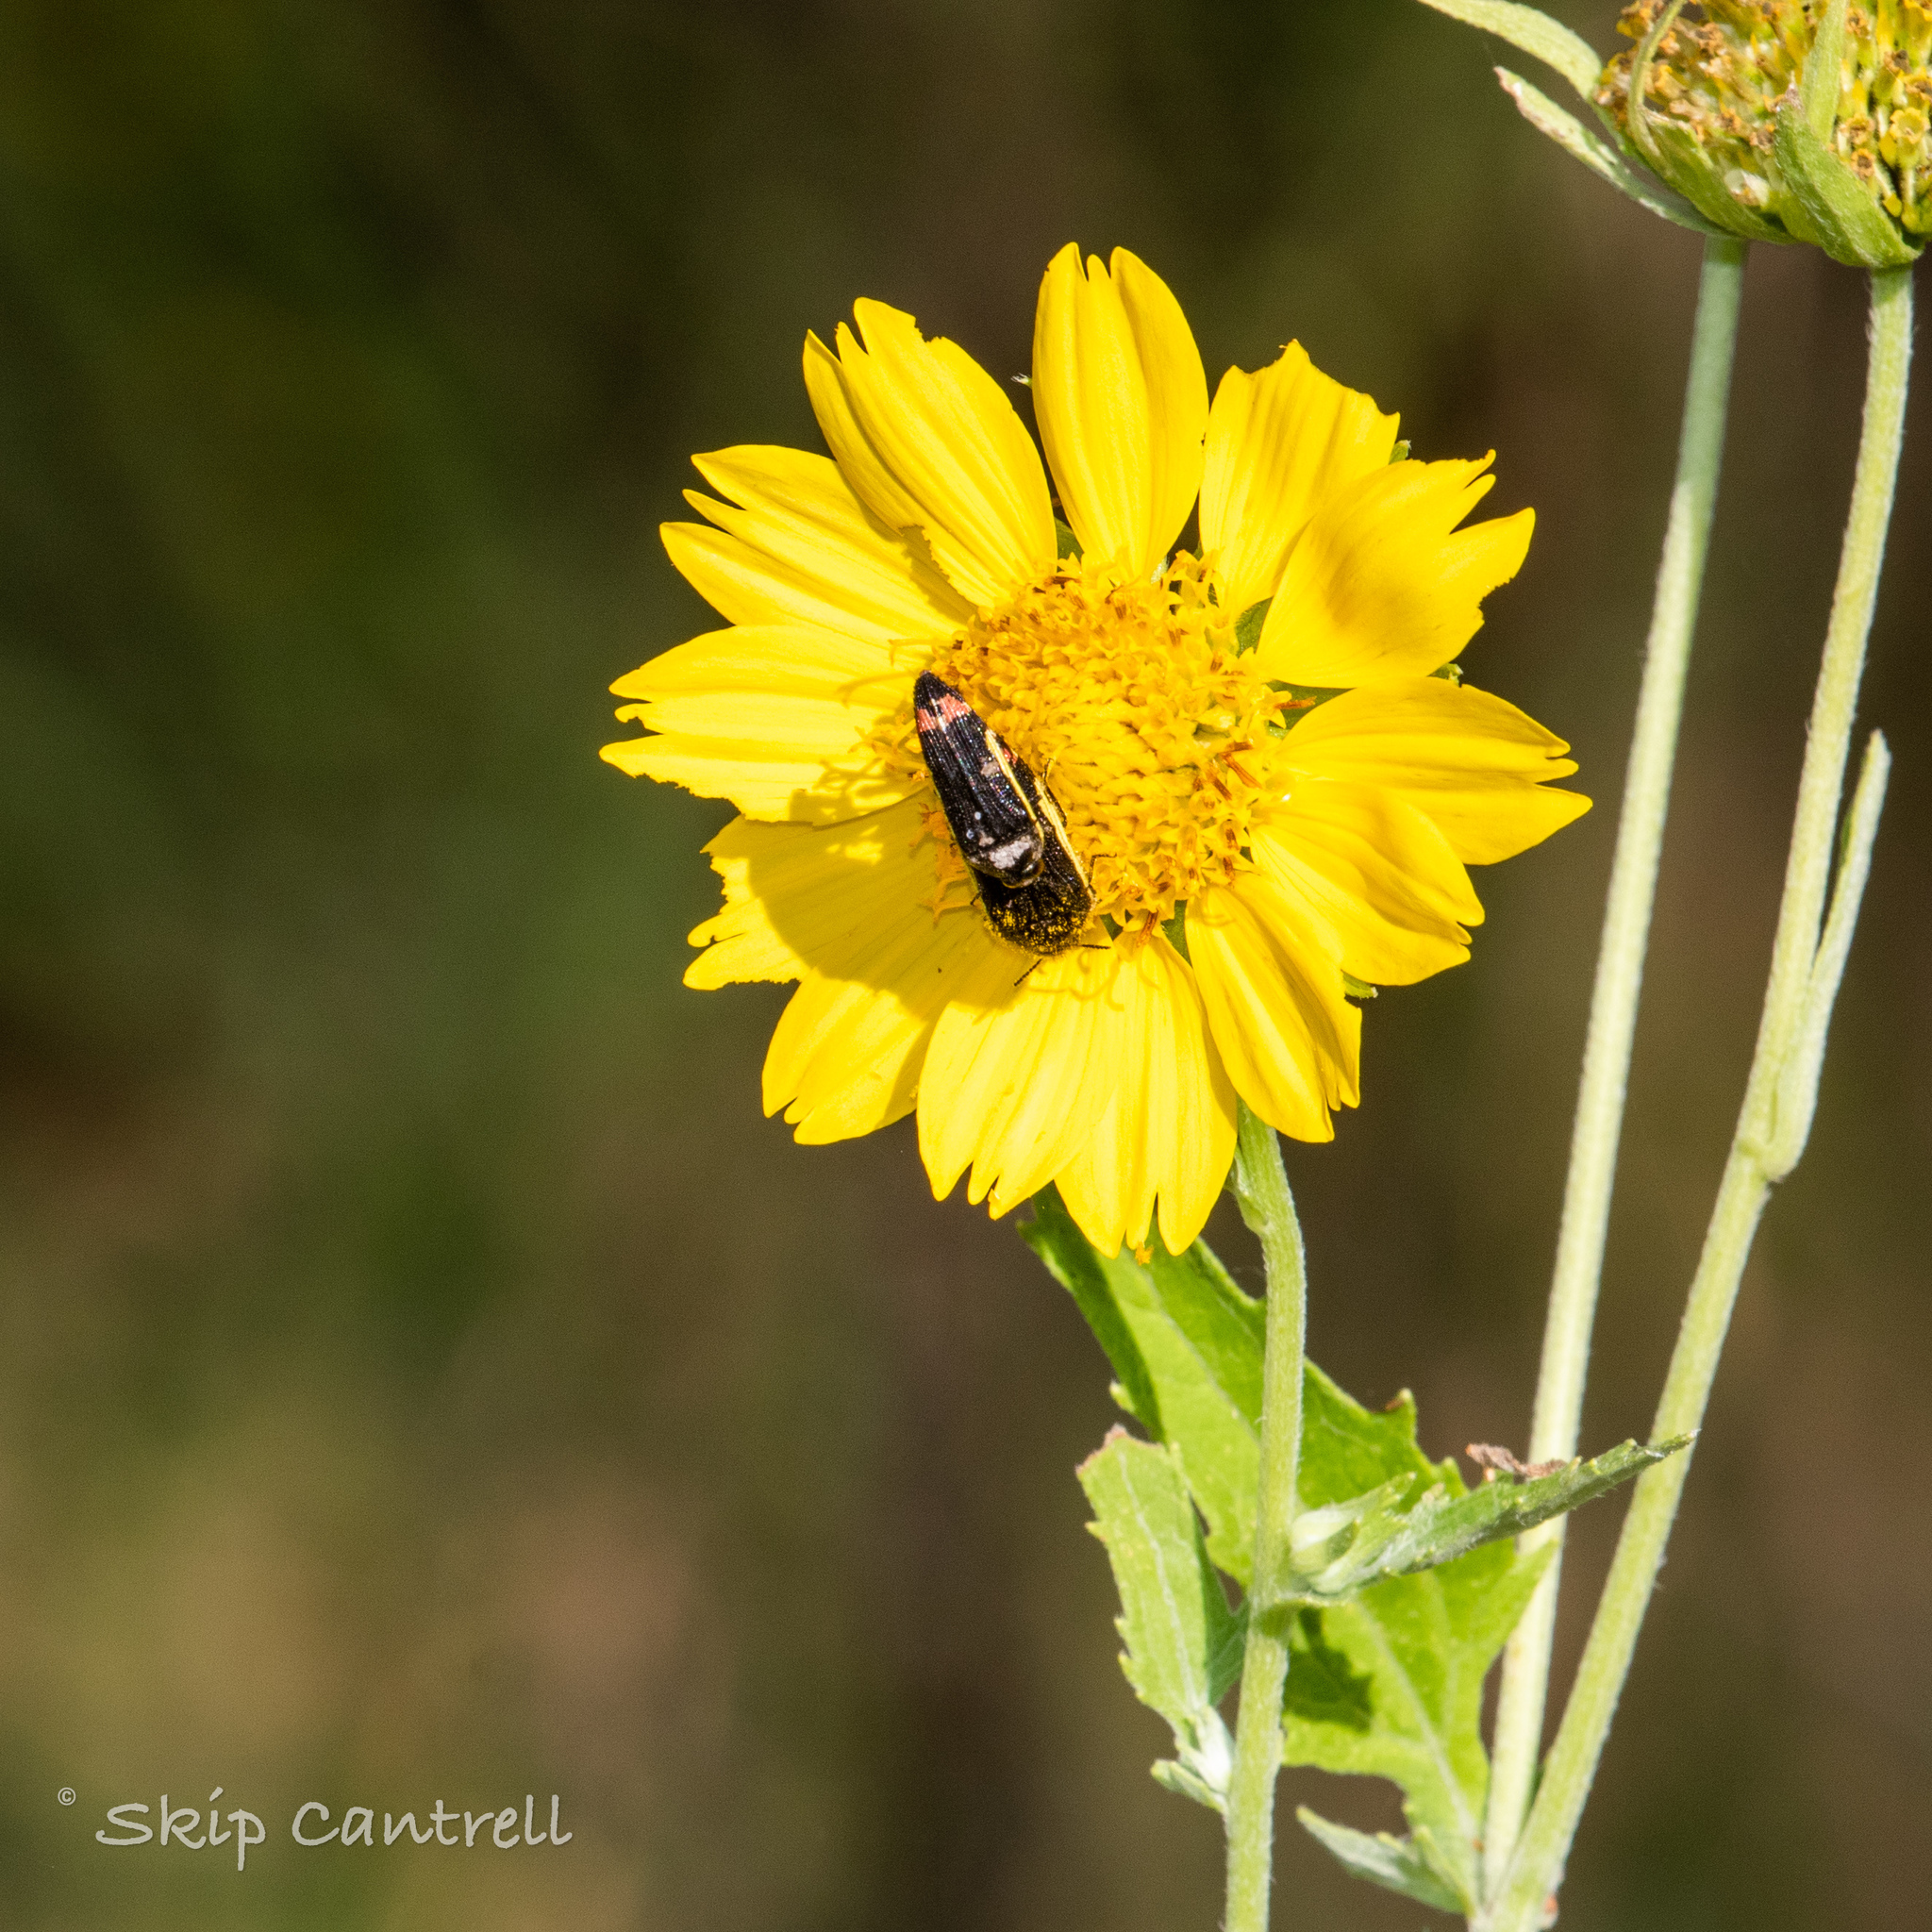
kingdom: Animalia
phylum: Arthropoda
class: Insecta
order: Coleoptera
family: Buprestidae
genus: Acmaeodera
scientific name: Acmaeodera flavomarginata
